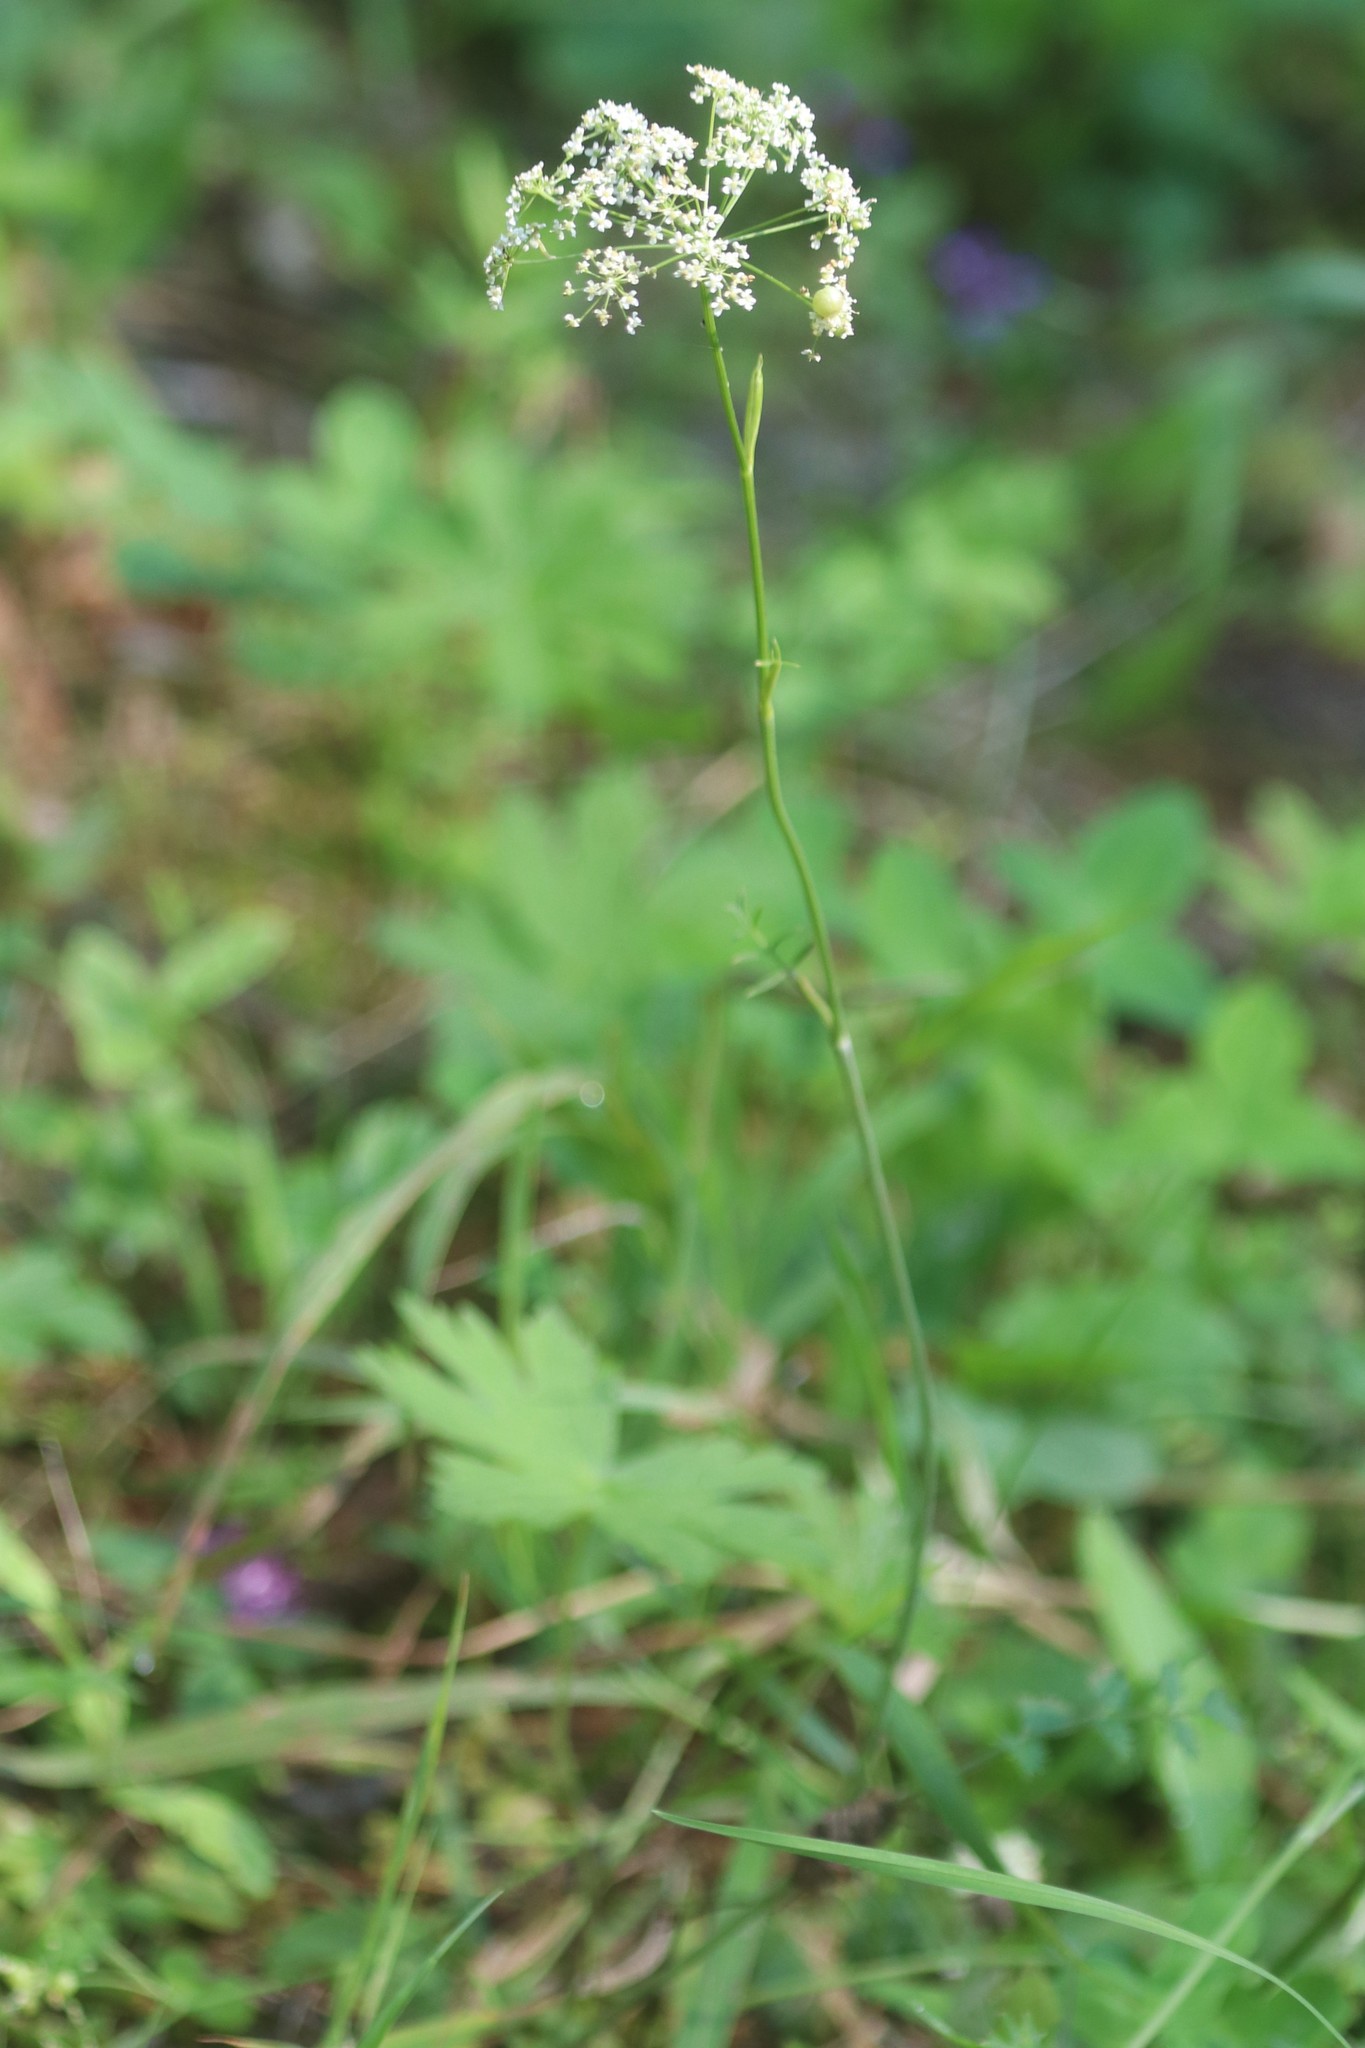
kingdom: Plantae
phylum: Tracheophyta
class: Magnoliopsida
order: Apiales
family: Apiaceae
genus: Pimpinella
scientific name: Pimpinella saxifraga
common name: Burnet-saxifrage
